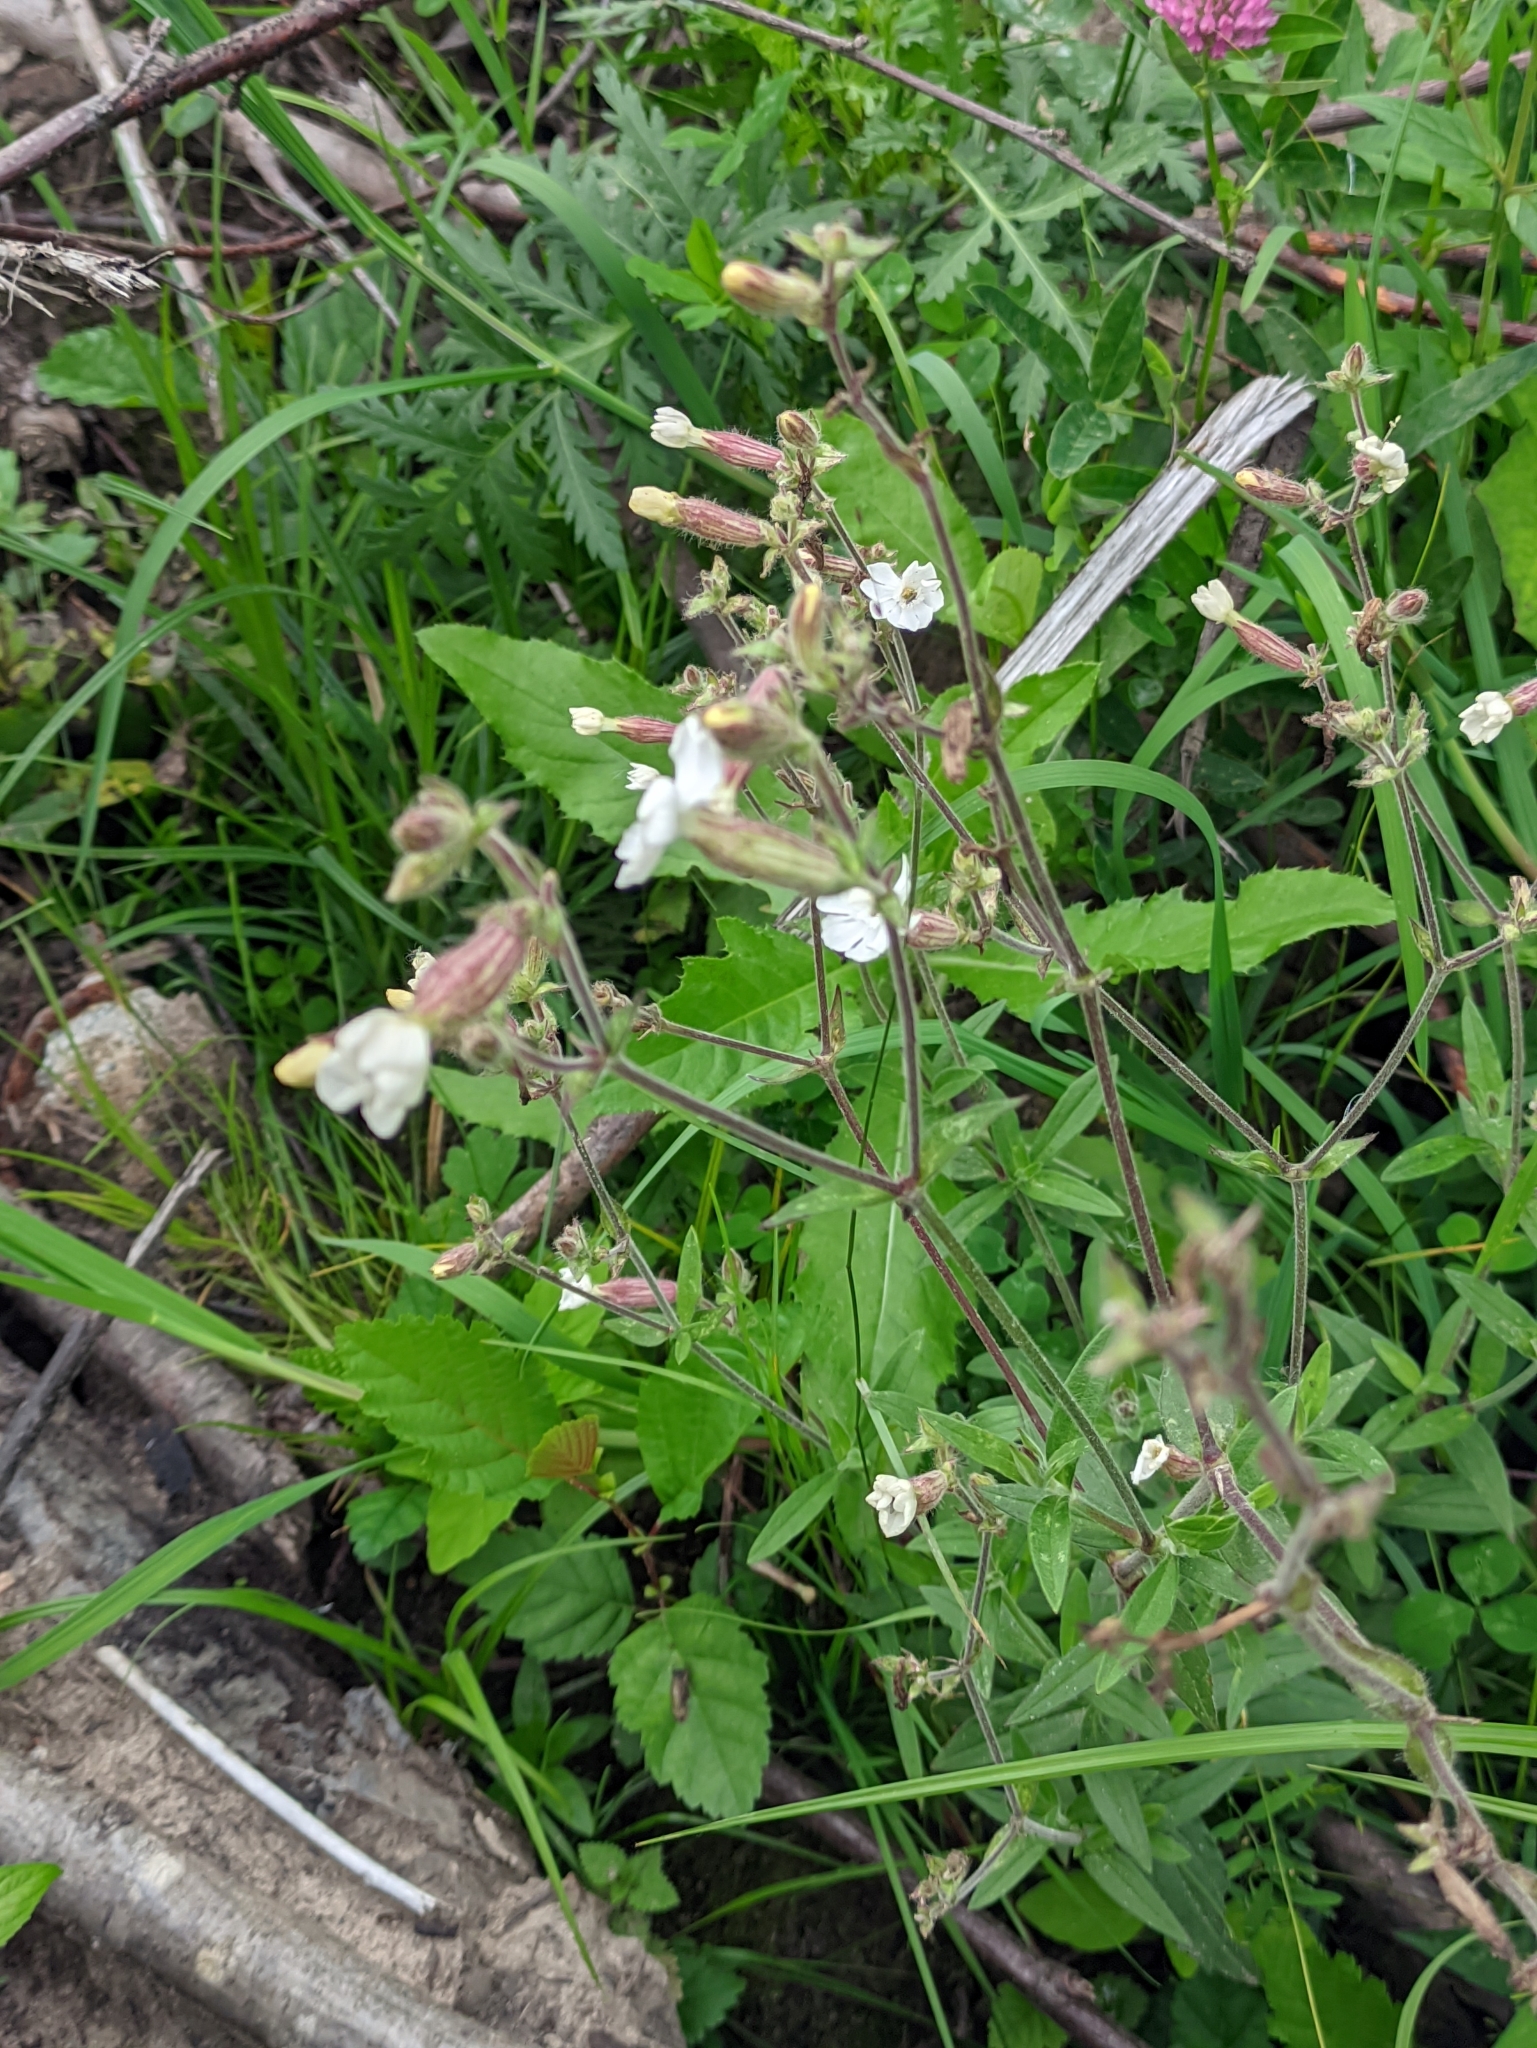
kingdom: Plantae
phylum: Tracheophyta
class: Magnoliopsida
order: Caryophyllales
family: Caryophyllaceae
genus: Silene
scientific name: Silene latifolia
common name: White campion
